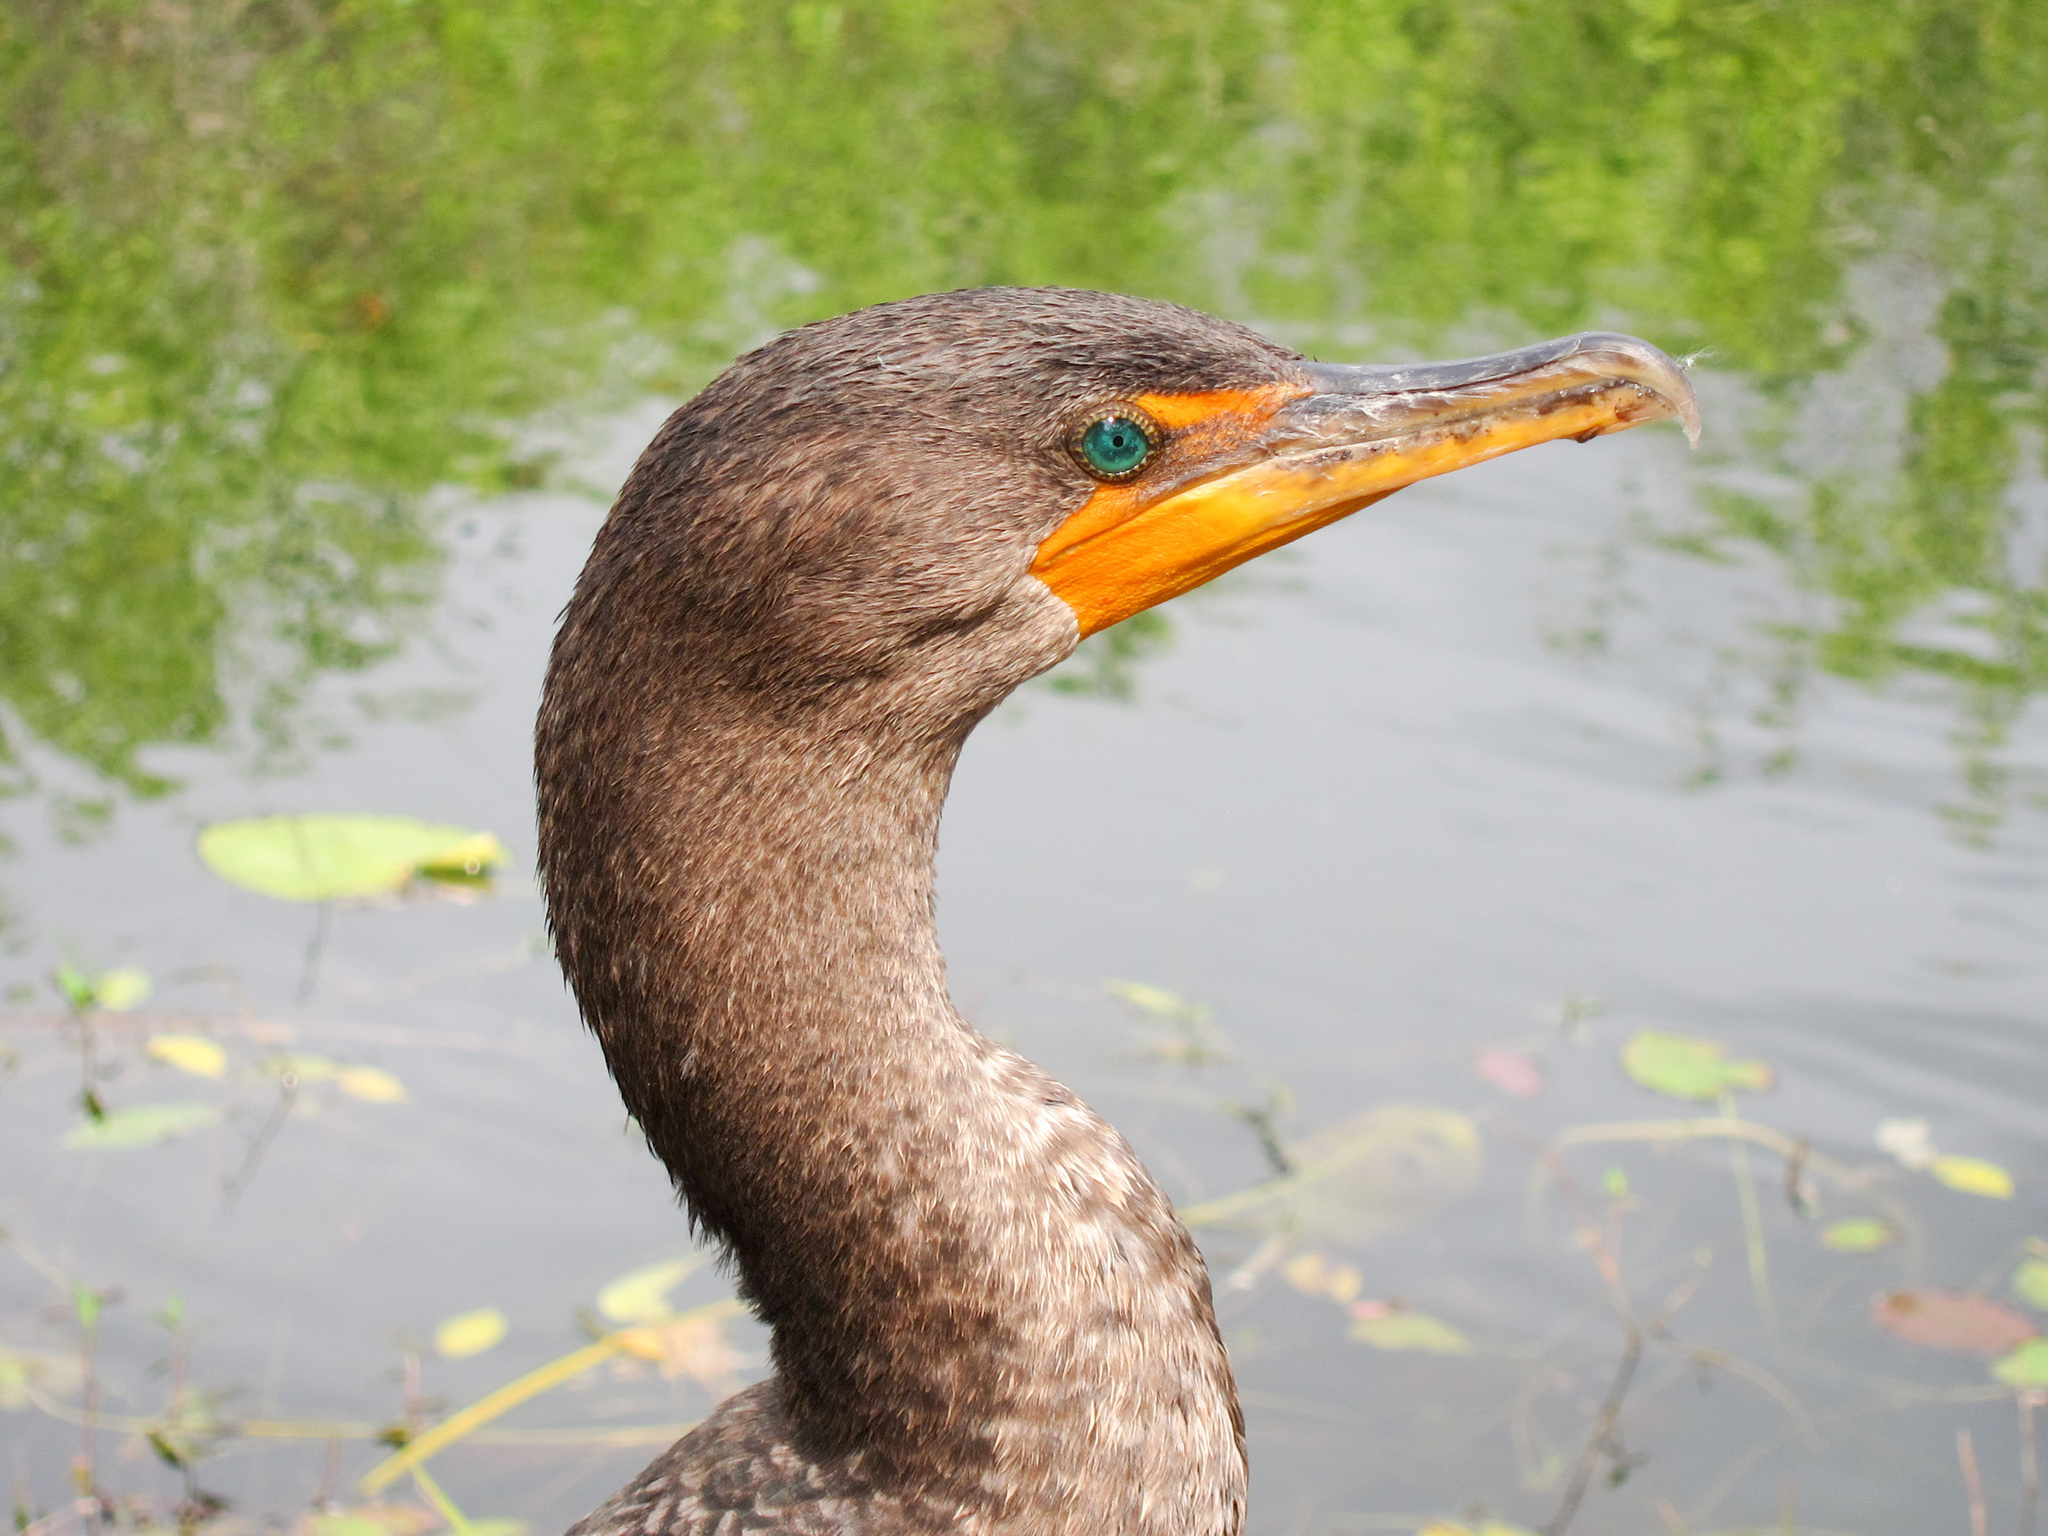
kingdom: Animalia
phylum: Chordata
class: Aves
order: Suliformes
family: Phalacrocoracidae
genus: Phalacrocorax
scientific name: Phalacrocorax auritus
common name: Double-crested cormorant
